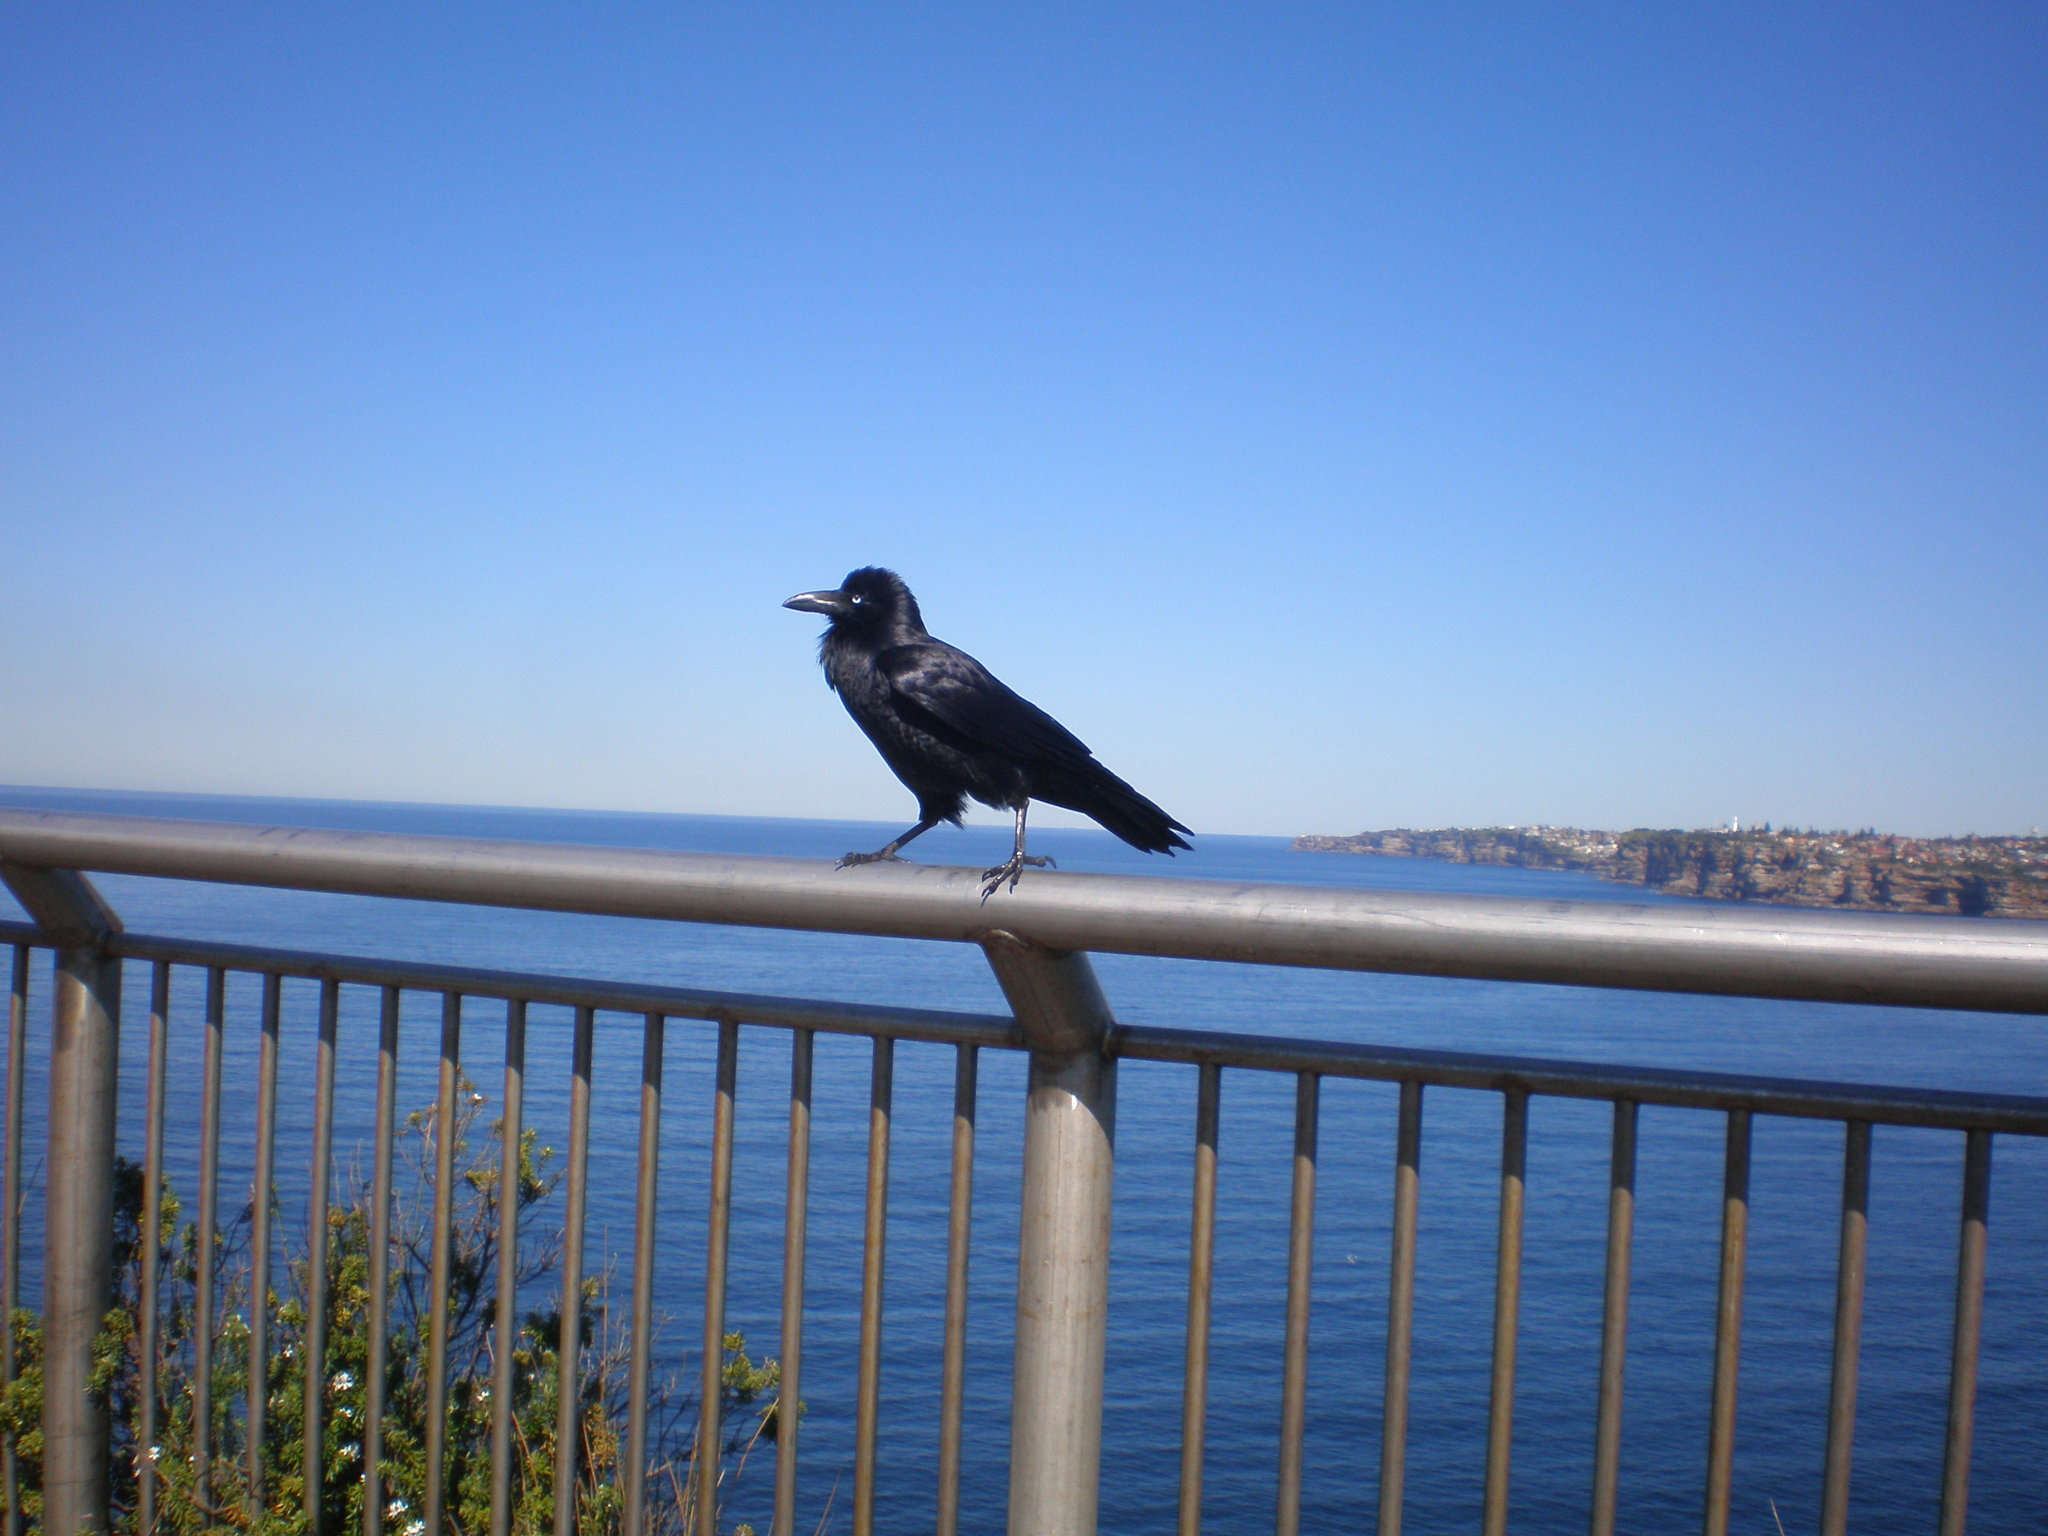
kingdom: Animalia
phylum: Chordata
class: Aves
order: Passeriformes
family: Corvidae
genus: Corvus
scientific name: Corvus coronoides
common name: Australian raven
